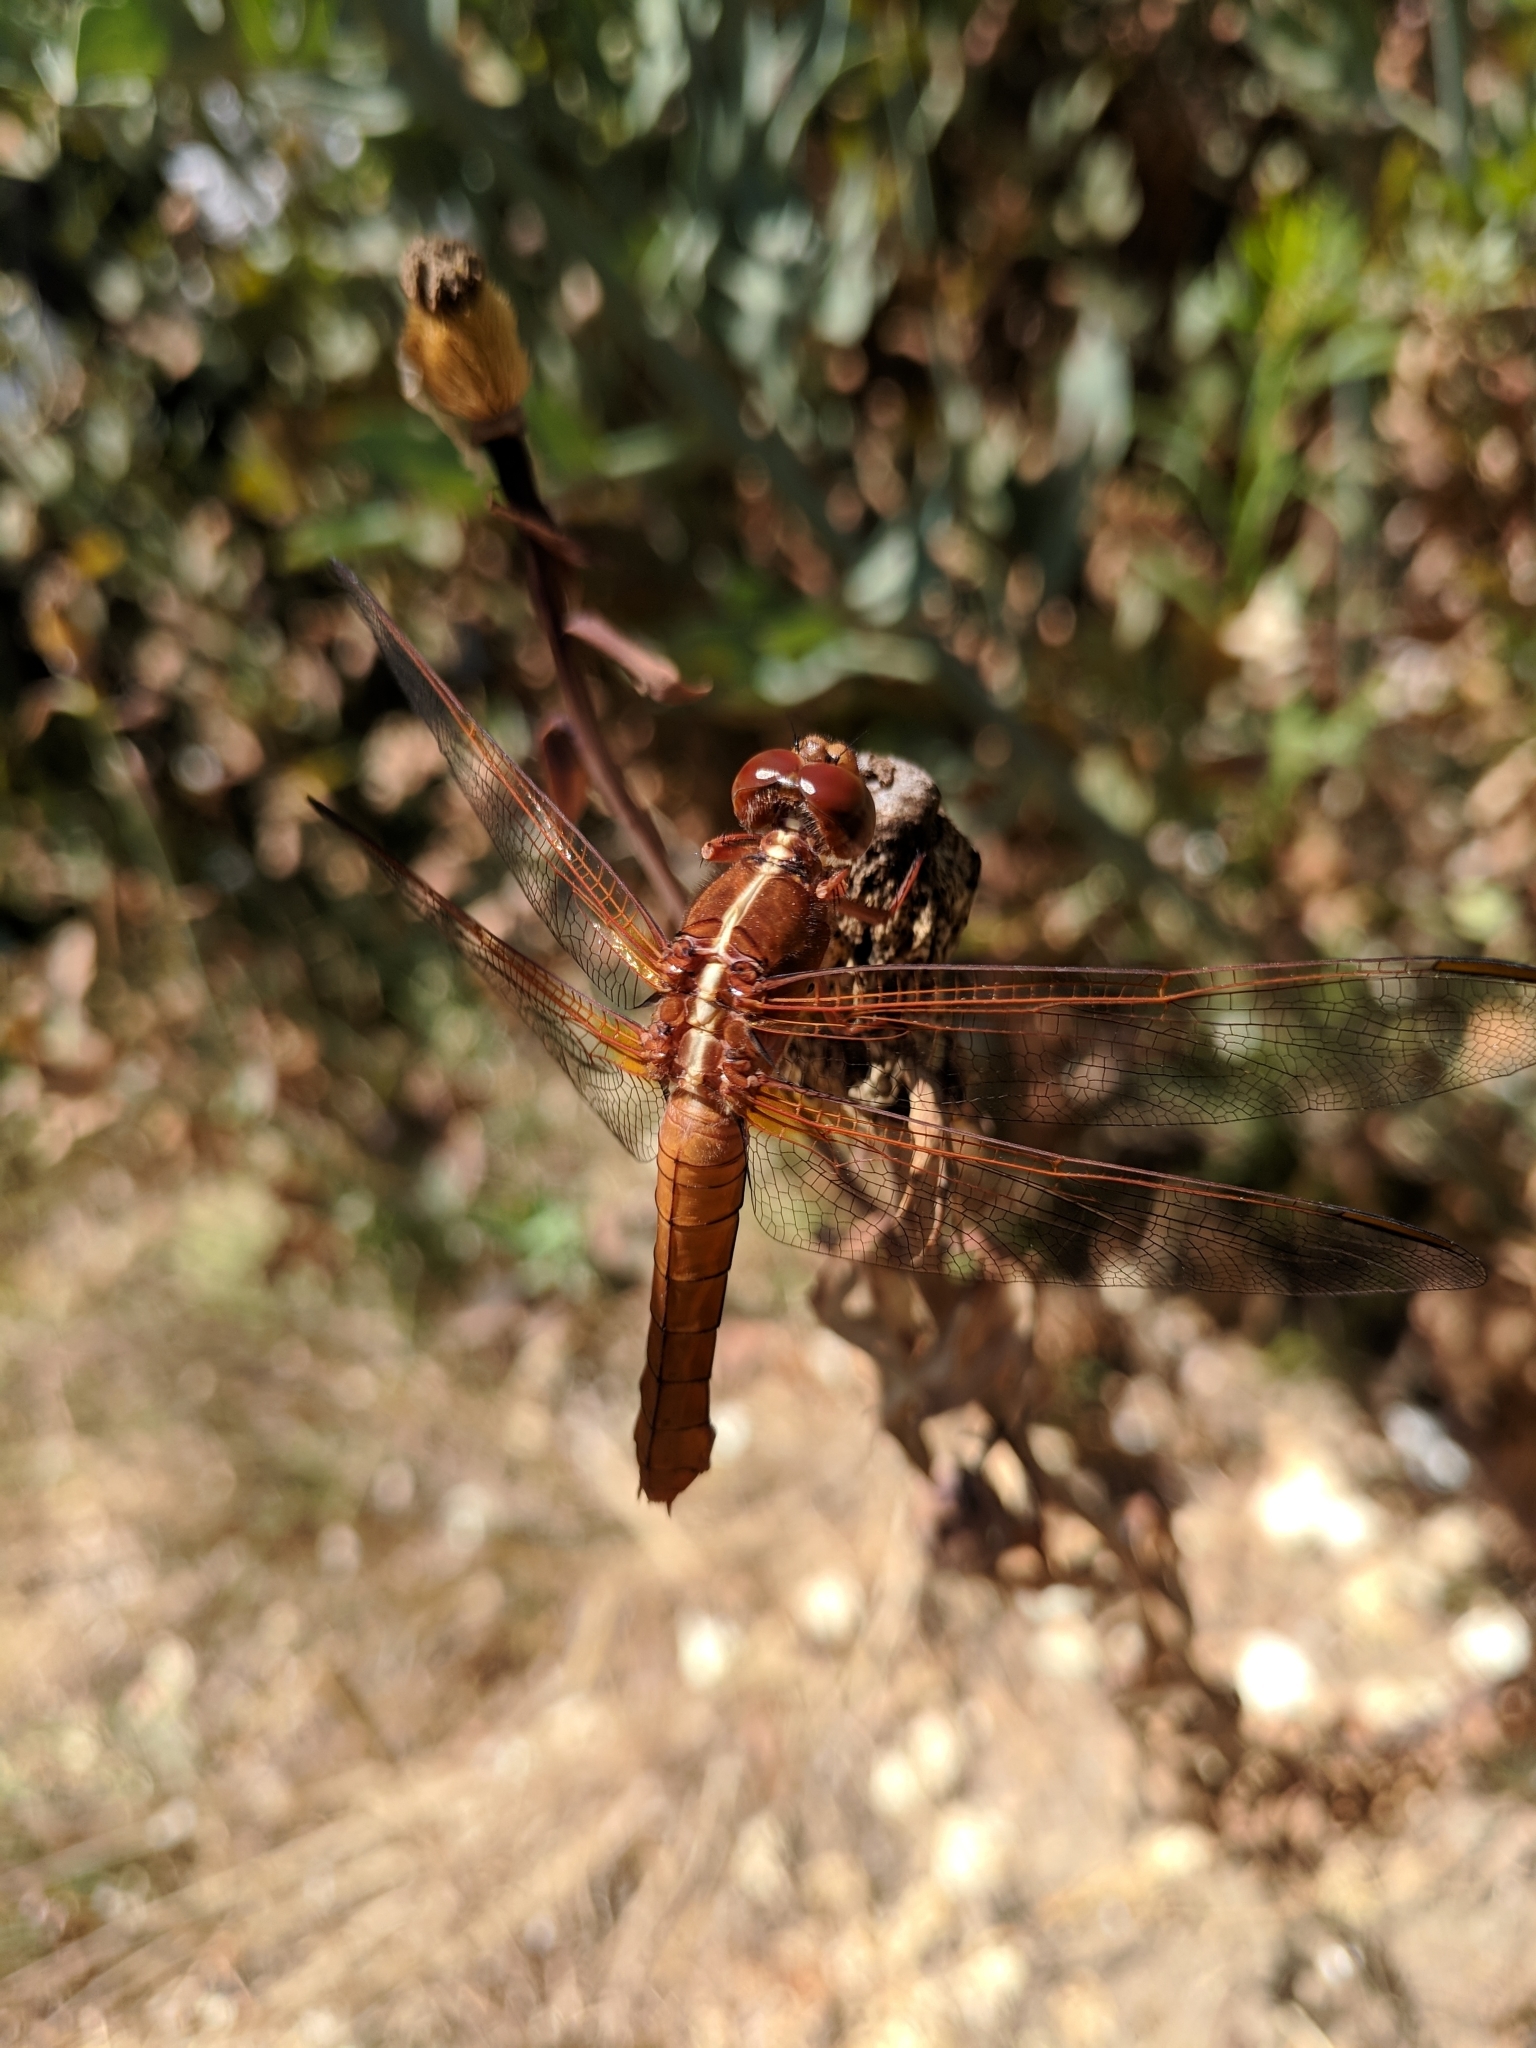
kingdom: Animalia
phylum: Arthropoda
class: Insecta
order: Odonata
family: Libellulidae
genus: Libellula
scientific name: Libellula croceipennis
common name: Neon skimmer
